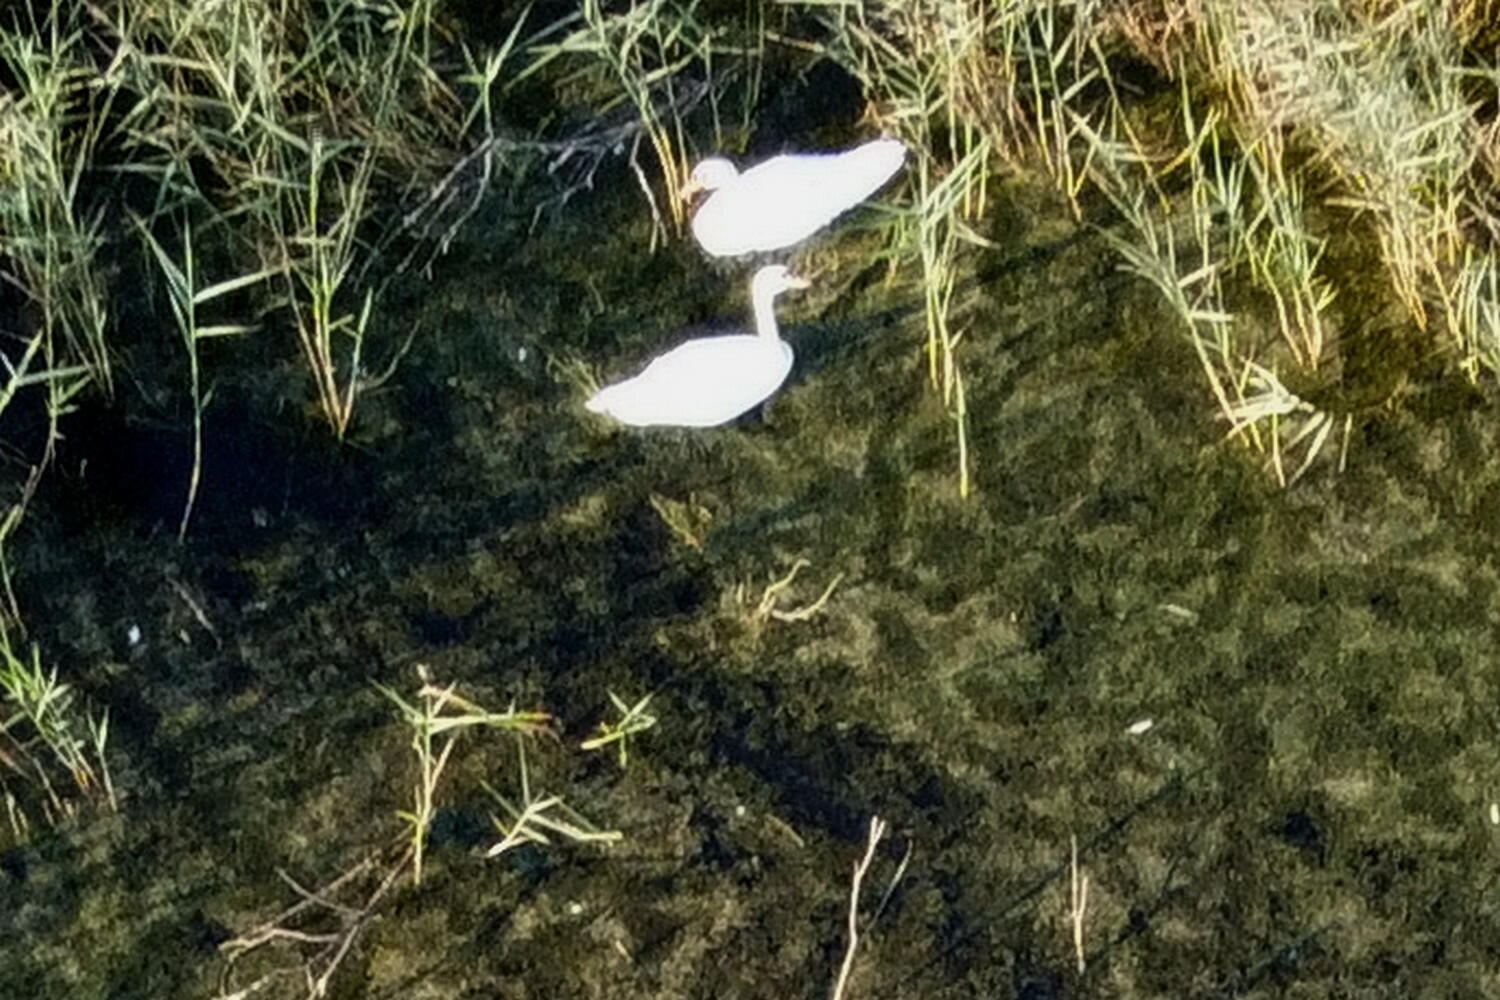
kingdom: Animalia
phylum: Chordata
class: Aves
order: Anseriformes
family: Anatidae
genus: Cygnus
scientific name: Cygnus olor
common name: Mute swan
